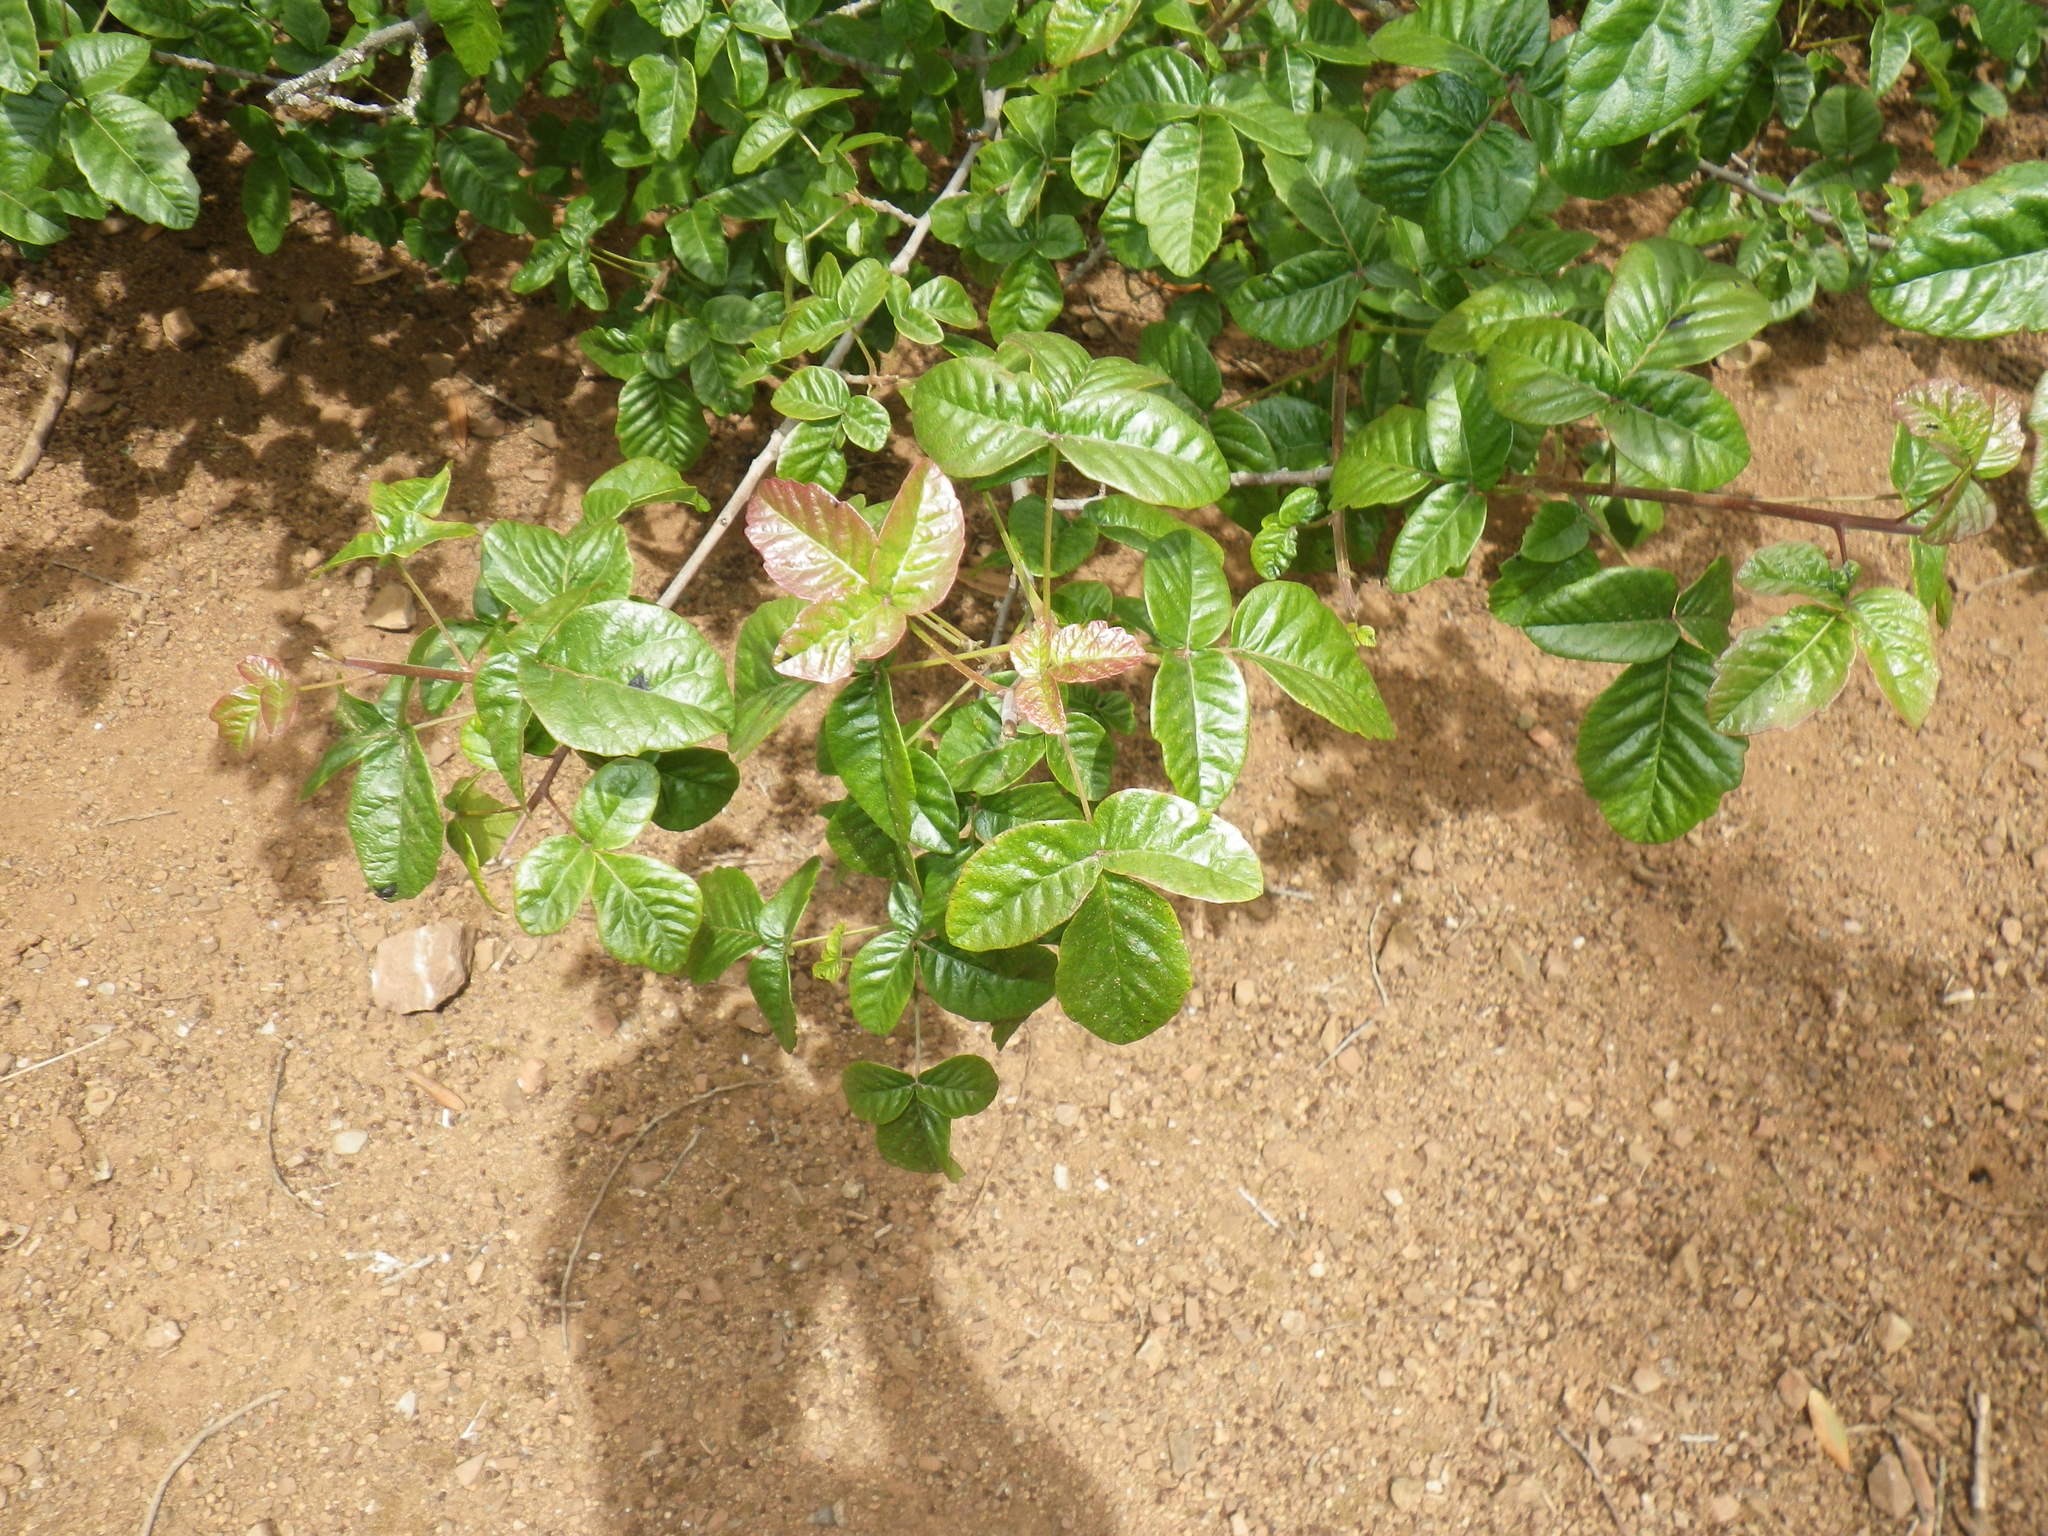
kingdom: Plantae
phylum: Tracheophyta
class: Magnoliopsida
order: Sapindales
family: Anacardiaceae
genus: Toxicodendron
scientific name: Toxicodendron diversilobum
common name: Pacific poison-oak
